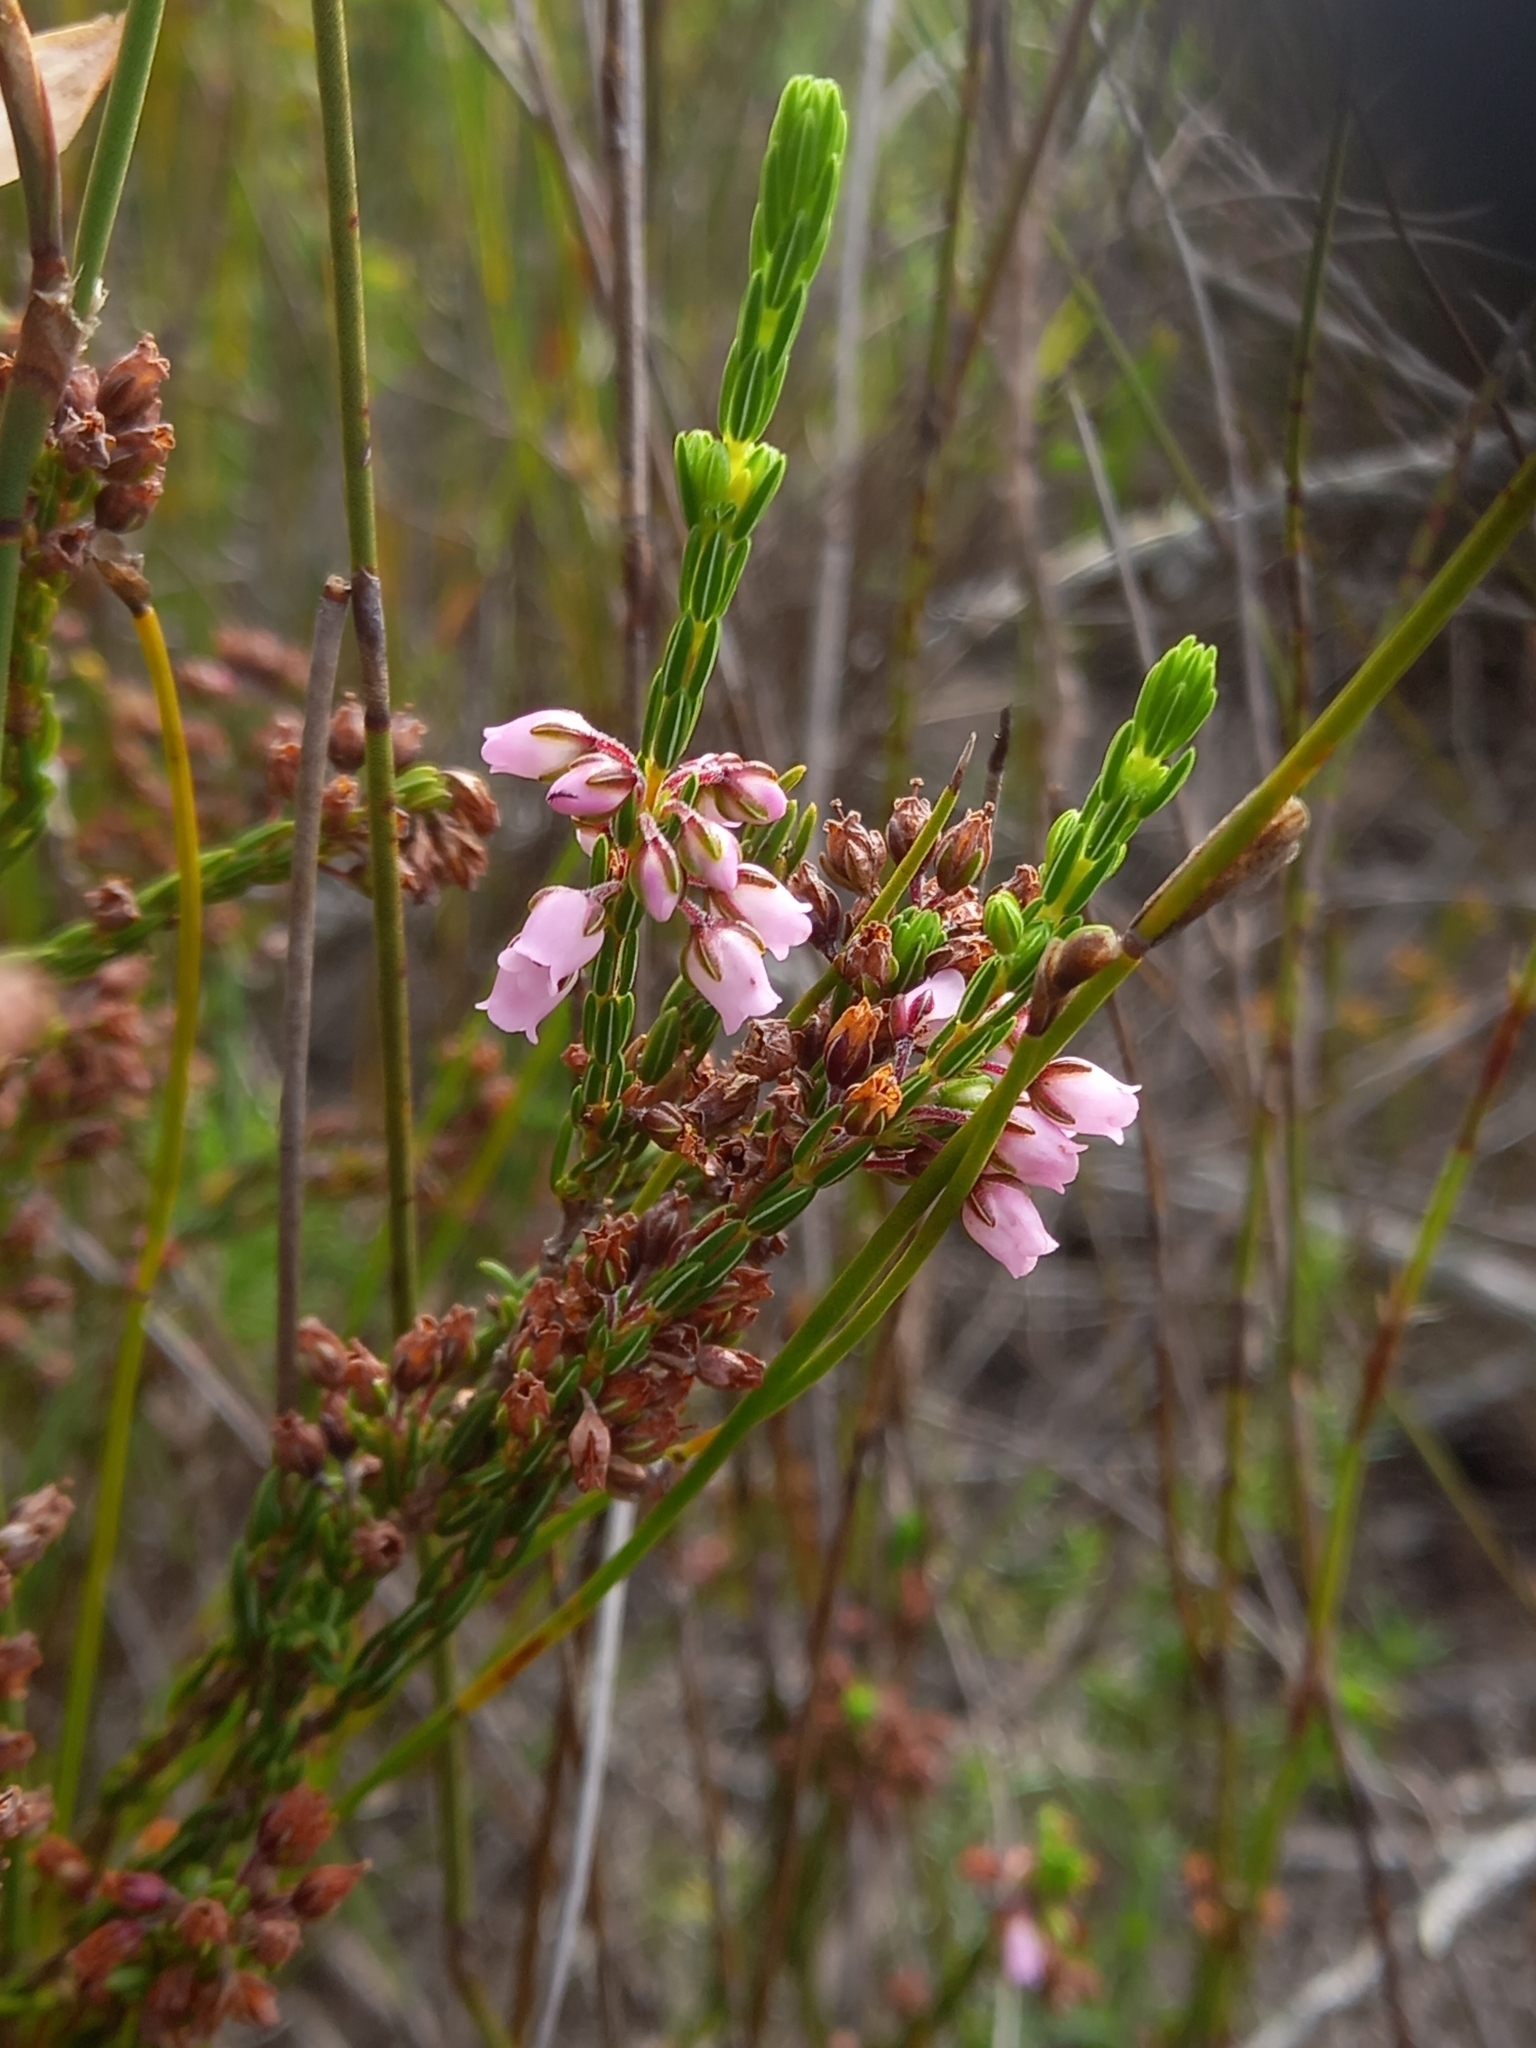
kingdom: Plantae
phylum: Tracheophyta
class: Magnoliopsida
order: Ericales
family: Ericaceae
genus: Erica
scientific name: Erica pulchella
